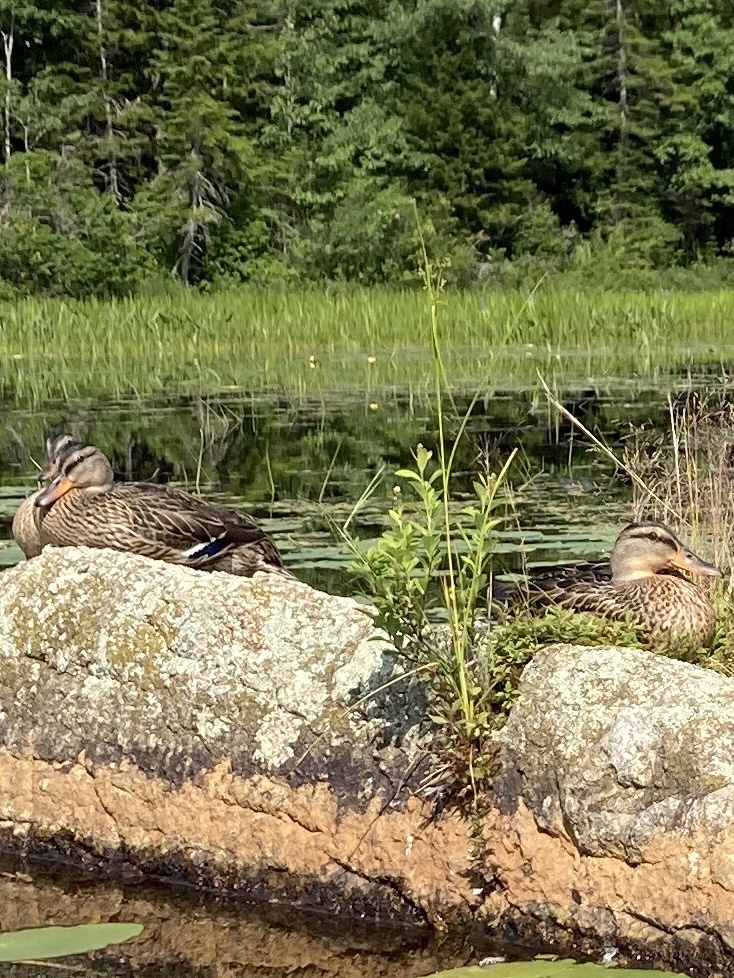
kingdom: Animalia
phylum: Chordata
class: Aves
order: Anseriformes
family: Anatidae
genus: Anas
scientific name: Anas platyrhynchos
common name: Mallard
